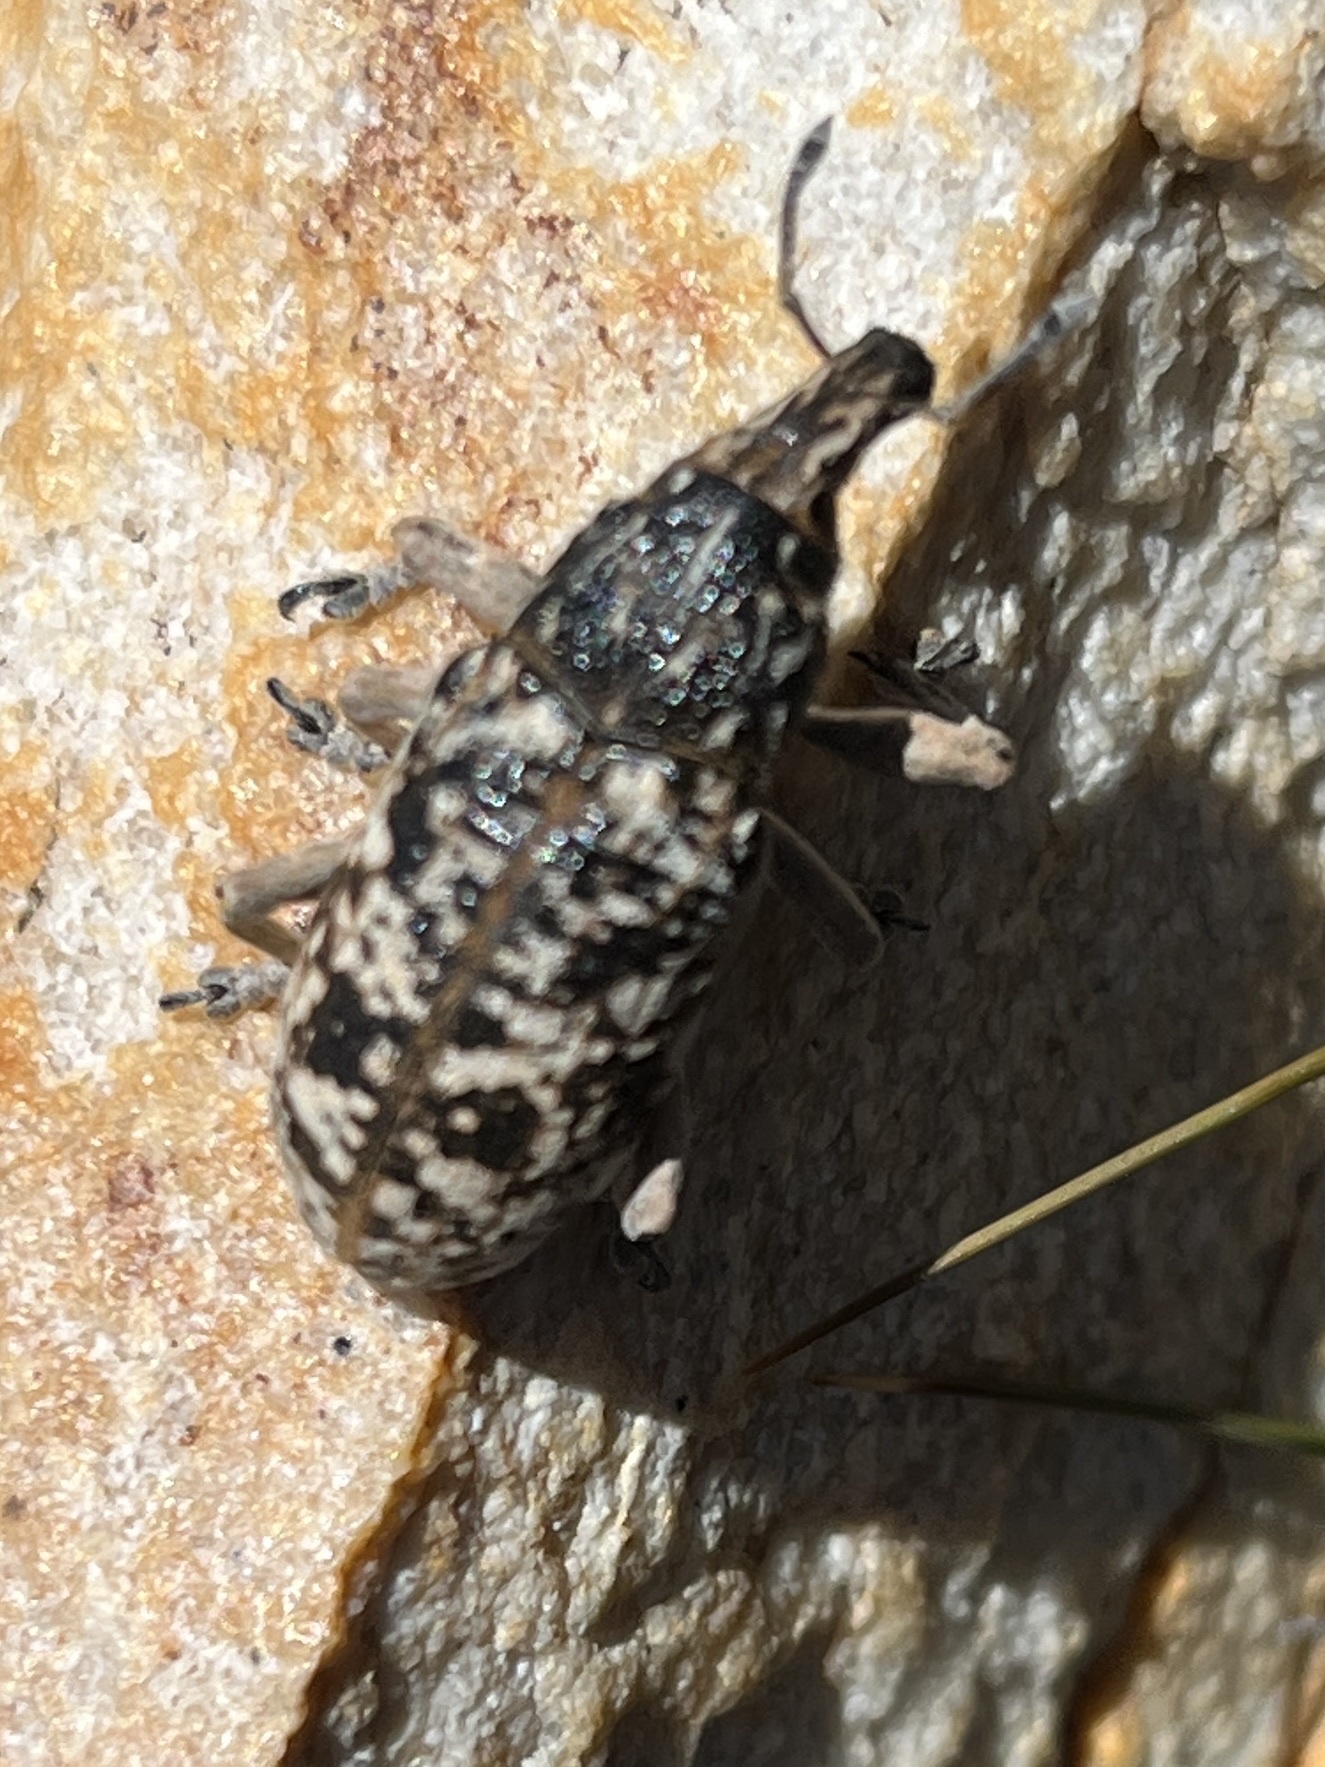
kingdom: Animalia
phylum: Arthropoda
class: Insecta
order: Coleoptera
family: Curculionidae
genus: Xenomacrus
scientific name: Xenomacrus glacialis
